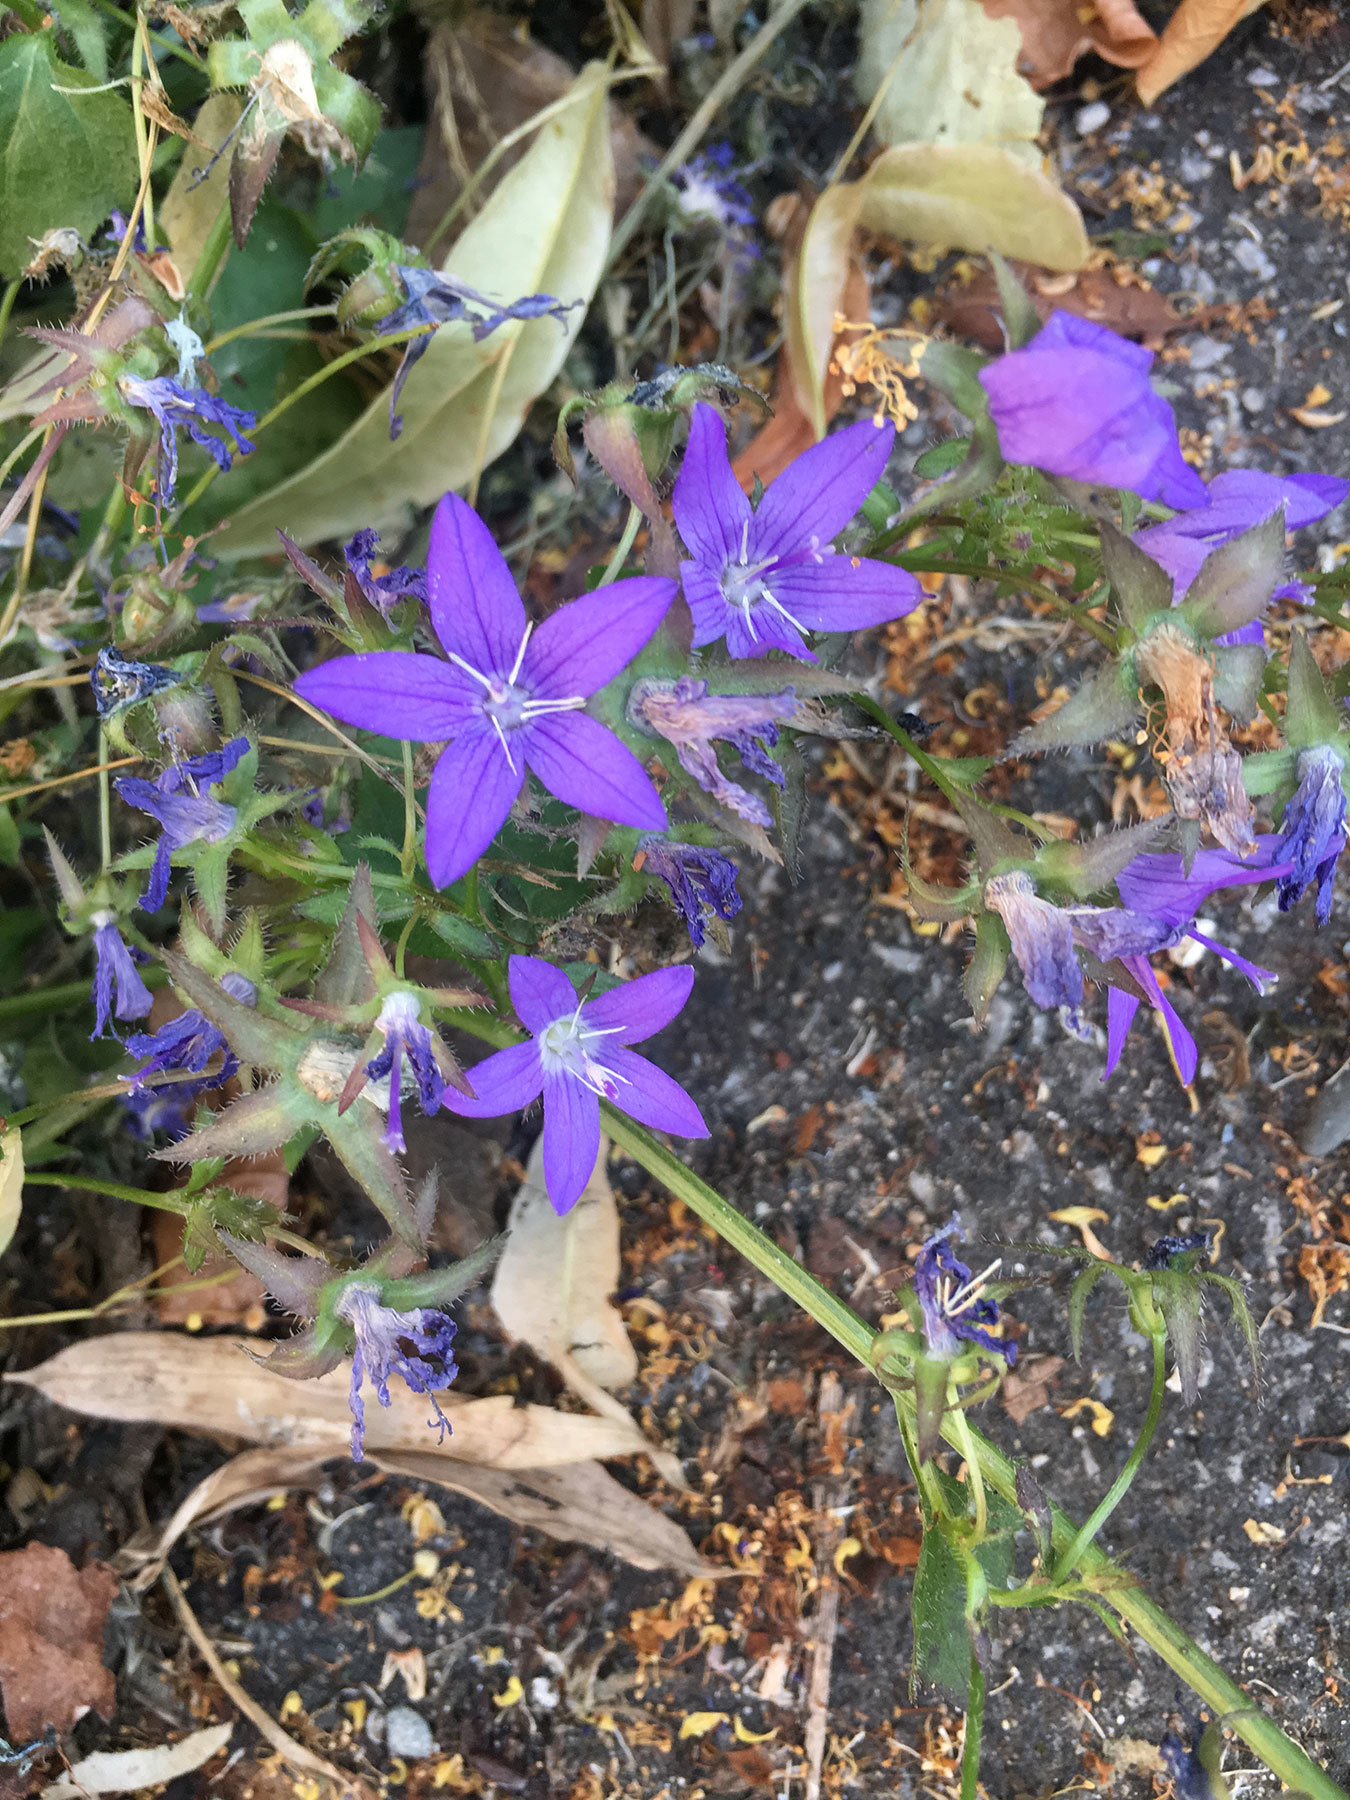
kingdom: Plantae
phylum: Tracheophyta
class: Magnoliopsida
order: Asterales
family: Campanulaceae
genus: Campanula
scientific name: Campanula poscharskyana
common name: Trailing bellflower
